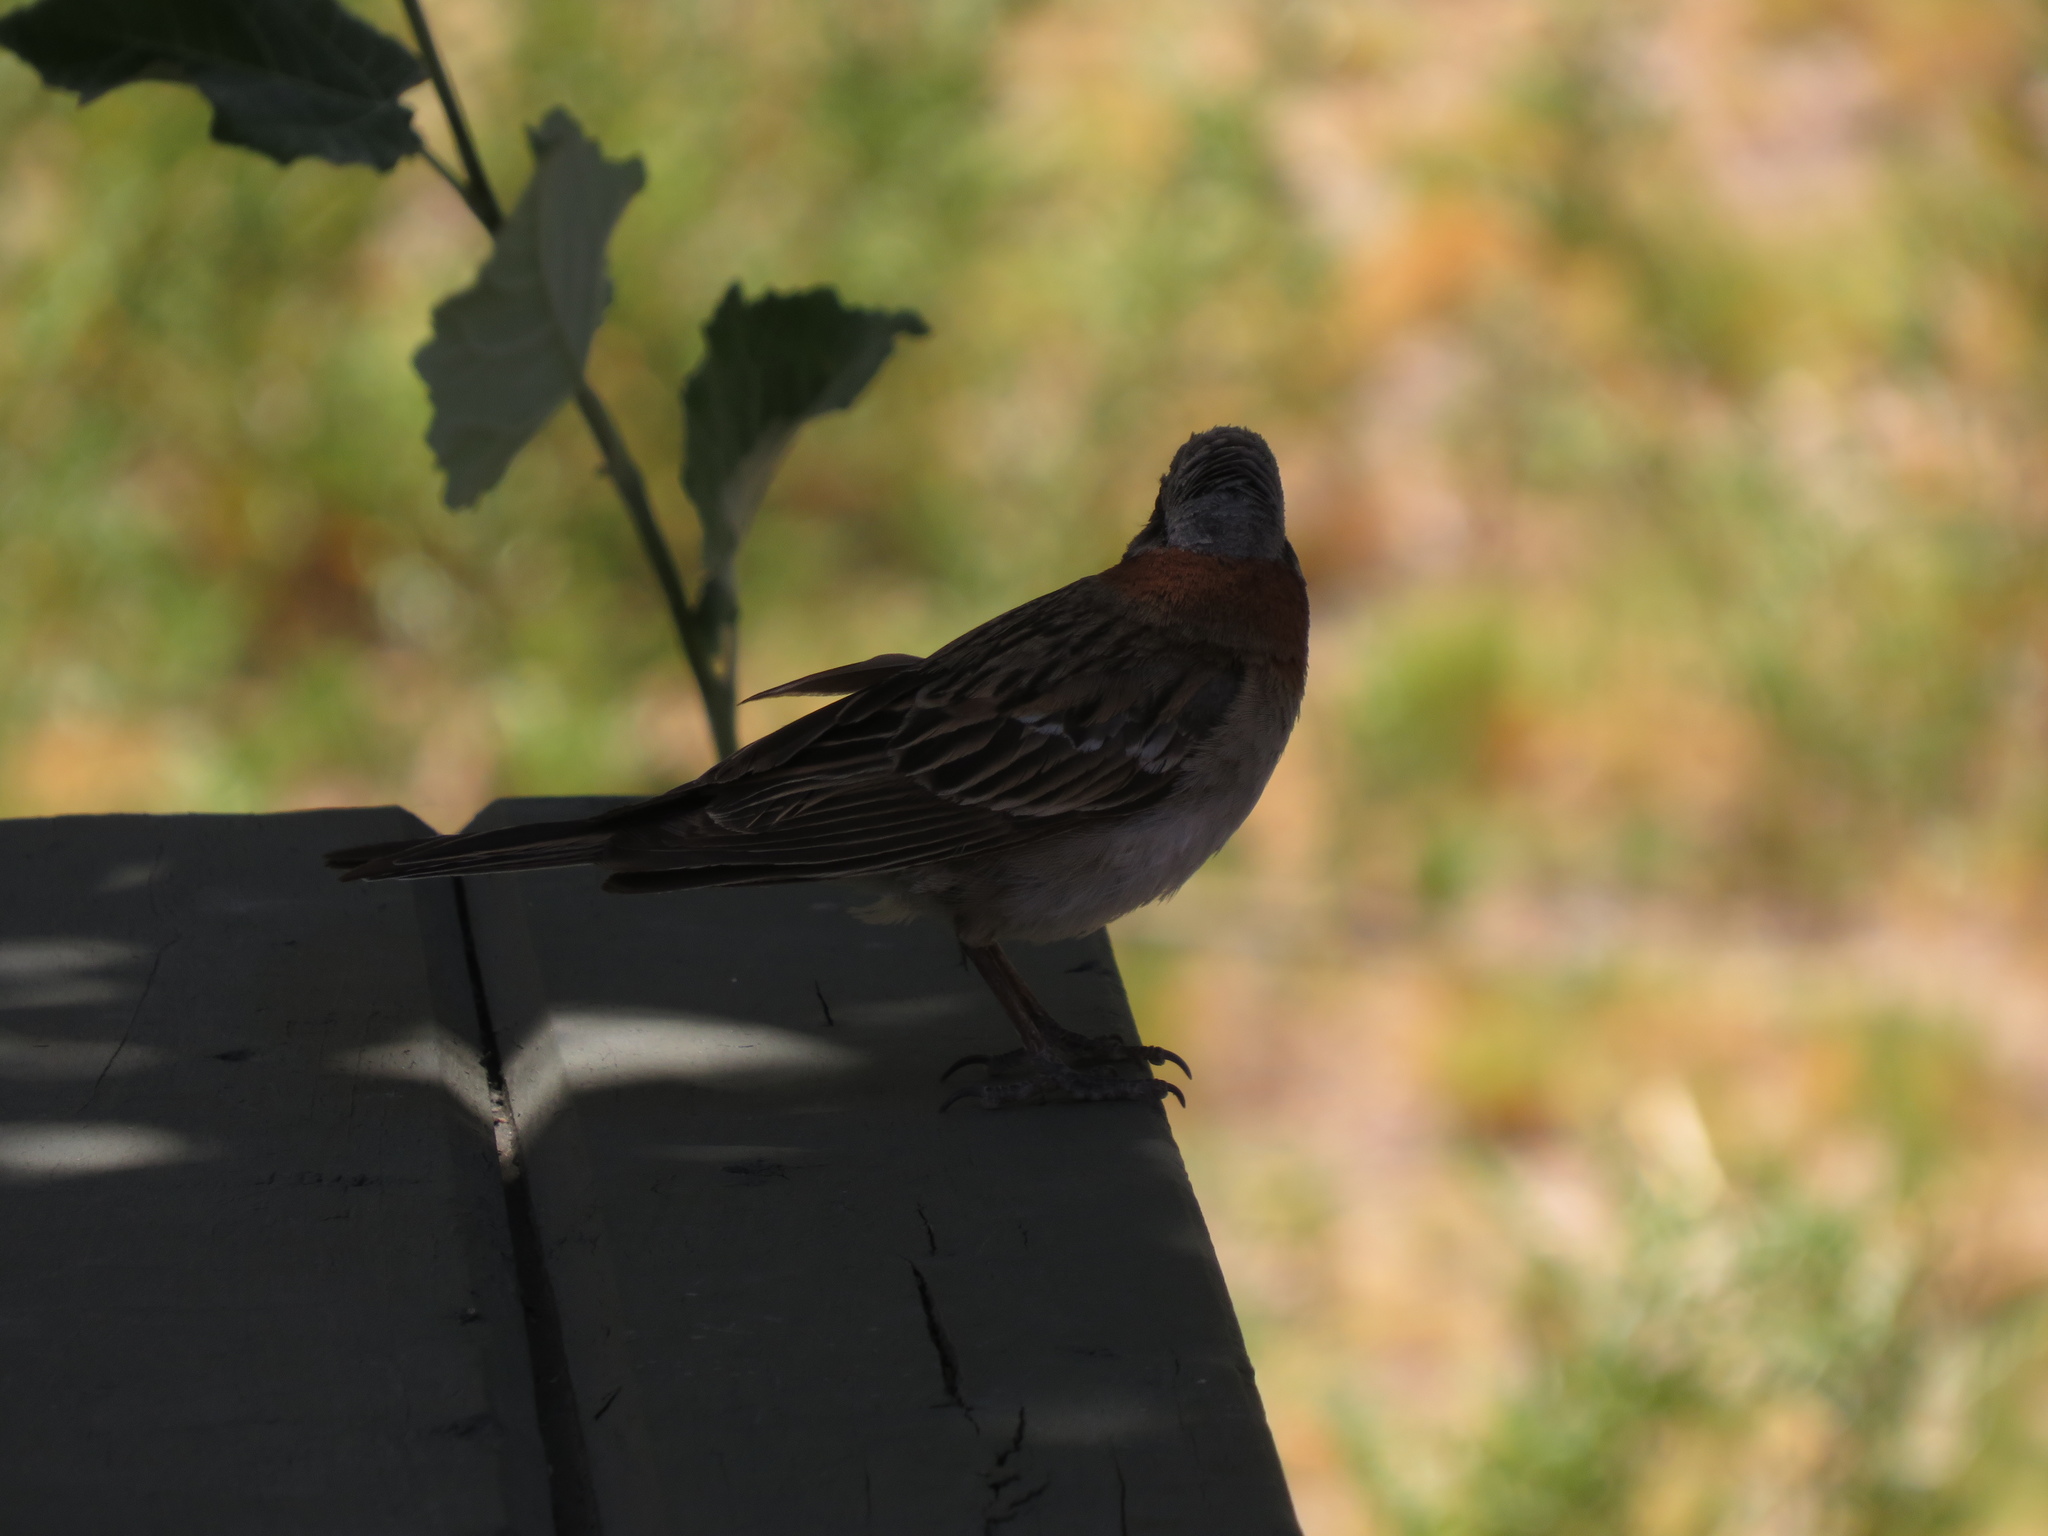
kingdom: Animalia
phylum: Chordata
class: Aves
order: Passeriformes
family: Passerellidae
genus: Zonotrichia
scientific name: Zonotrichia capensis
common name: Rufous-collared sparrow
